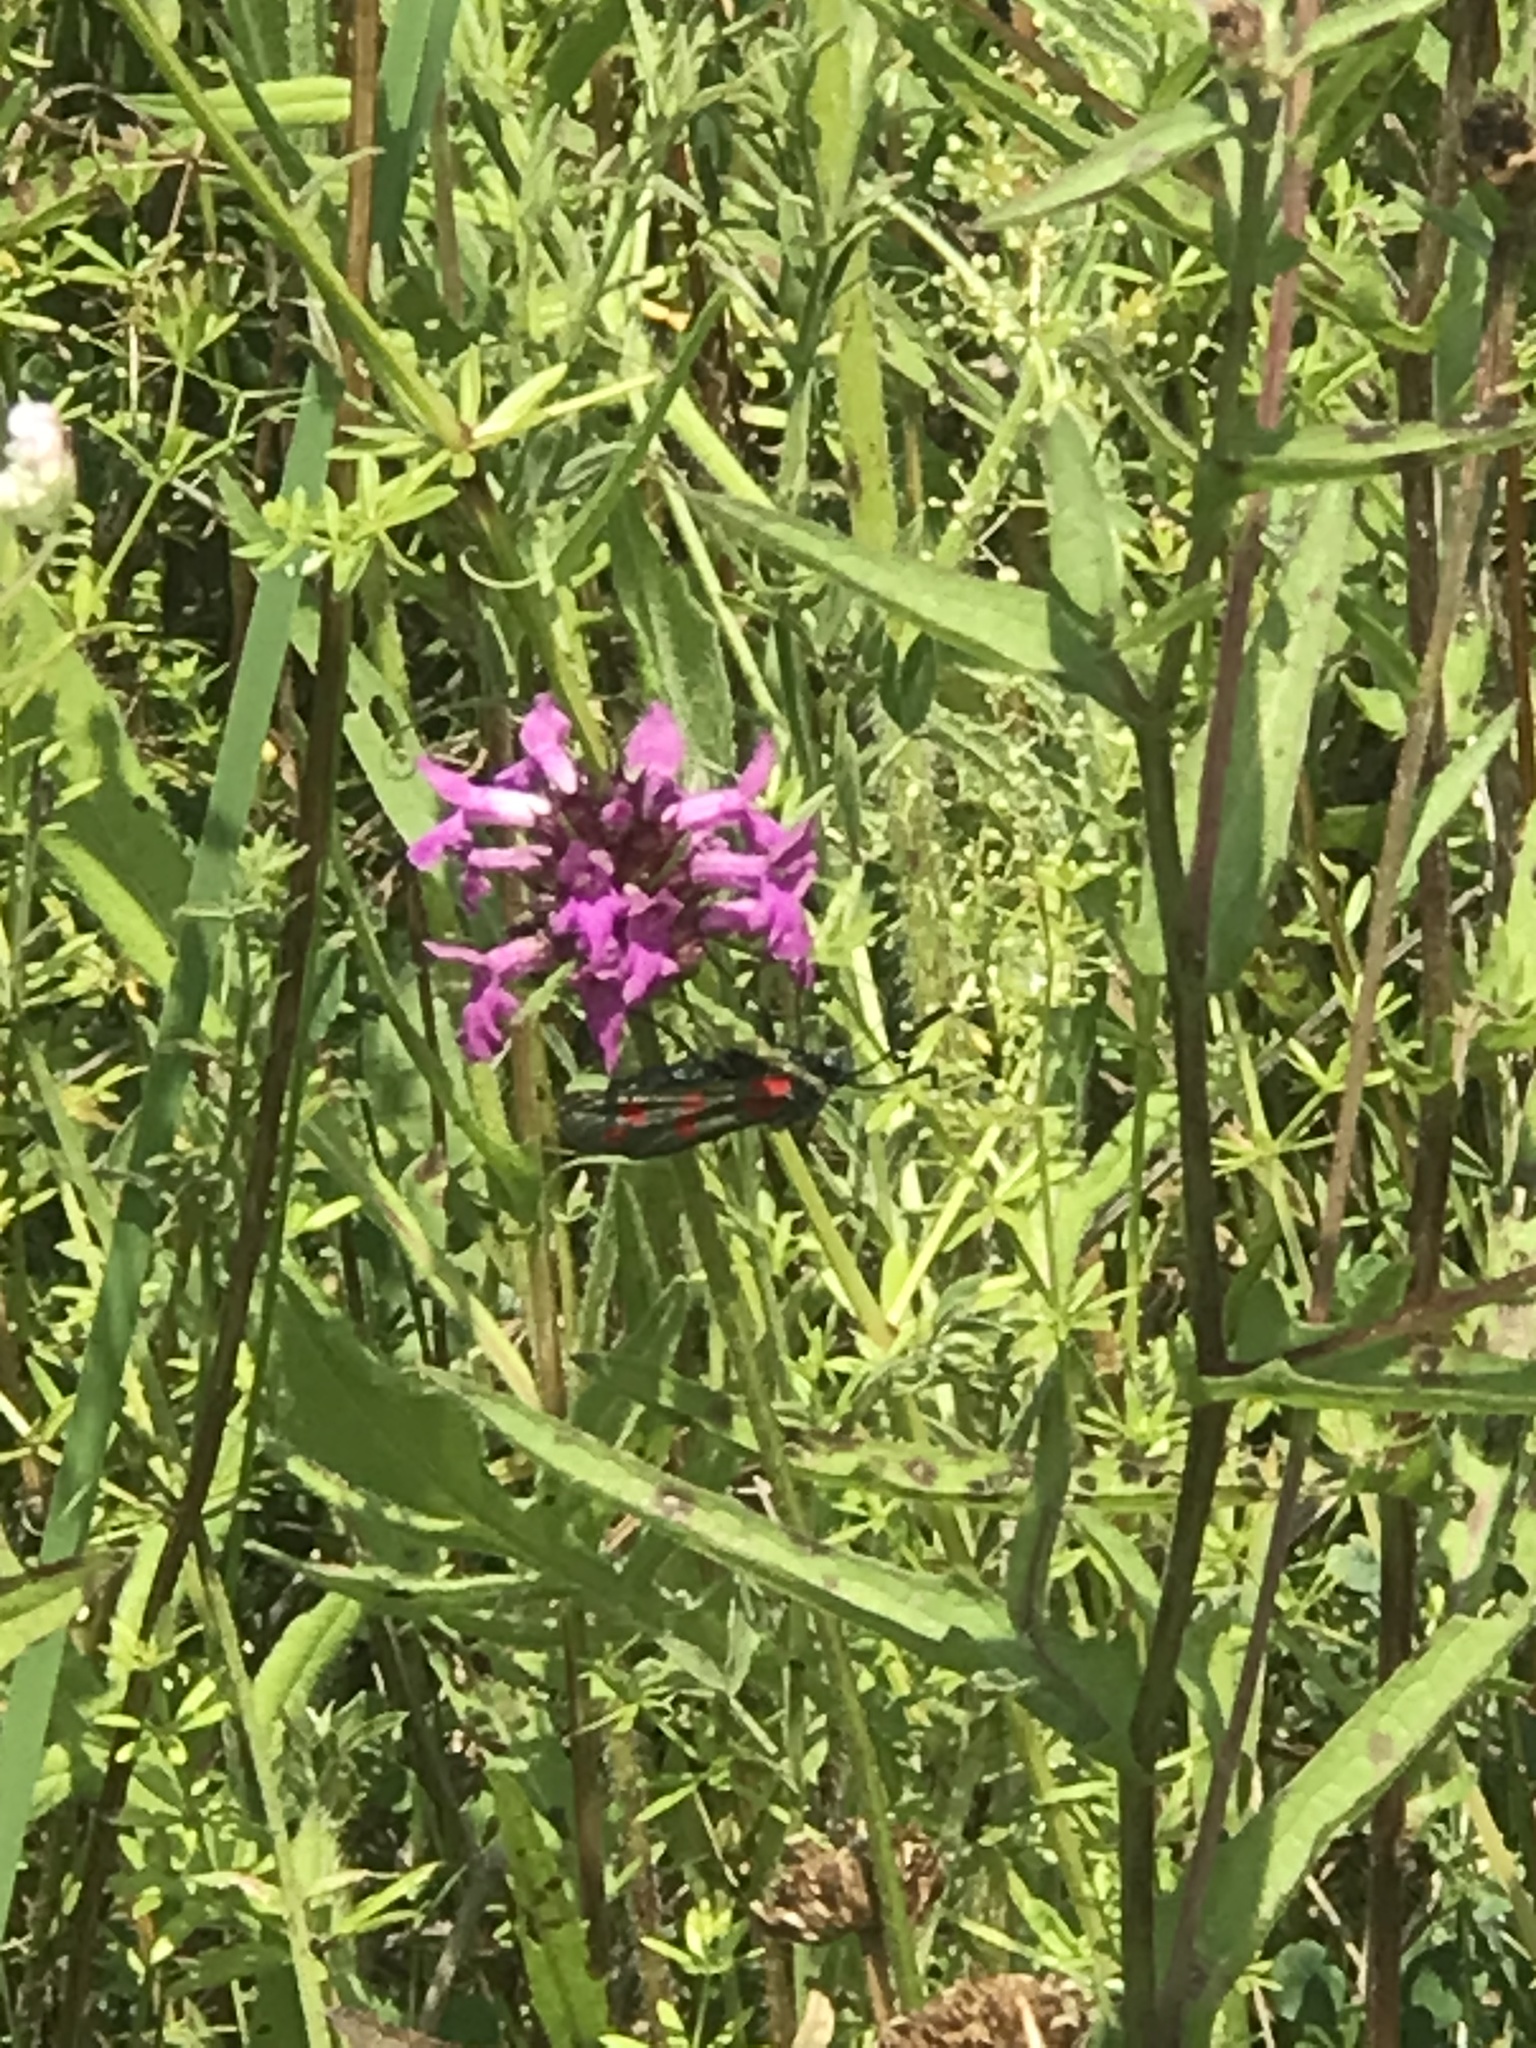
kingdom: Animalia
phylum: Arthropoda
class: Insecta
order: Lepidoptera
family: Zygaenidae
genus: Zygaena
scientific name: Zygaena filipendulae
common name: Six-spot burnet
